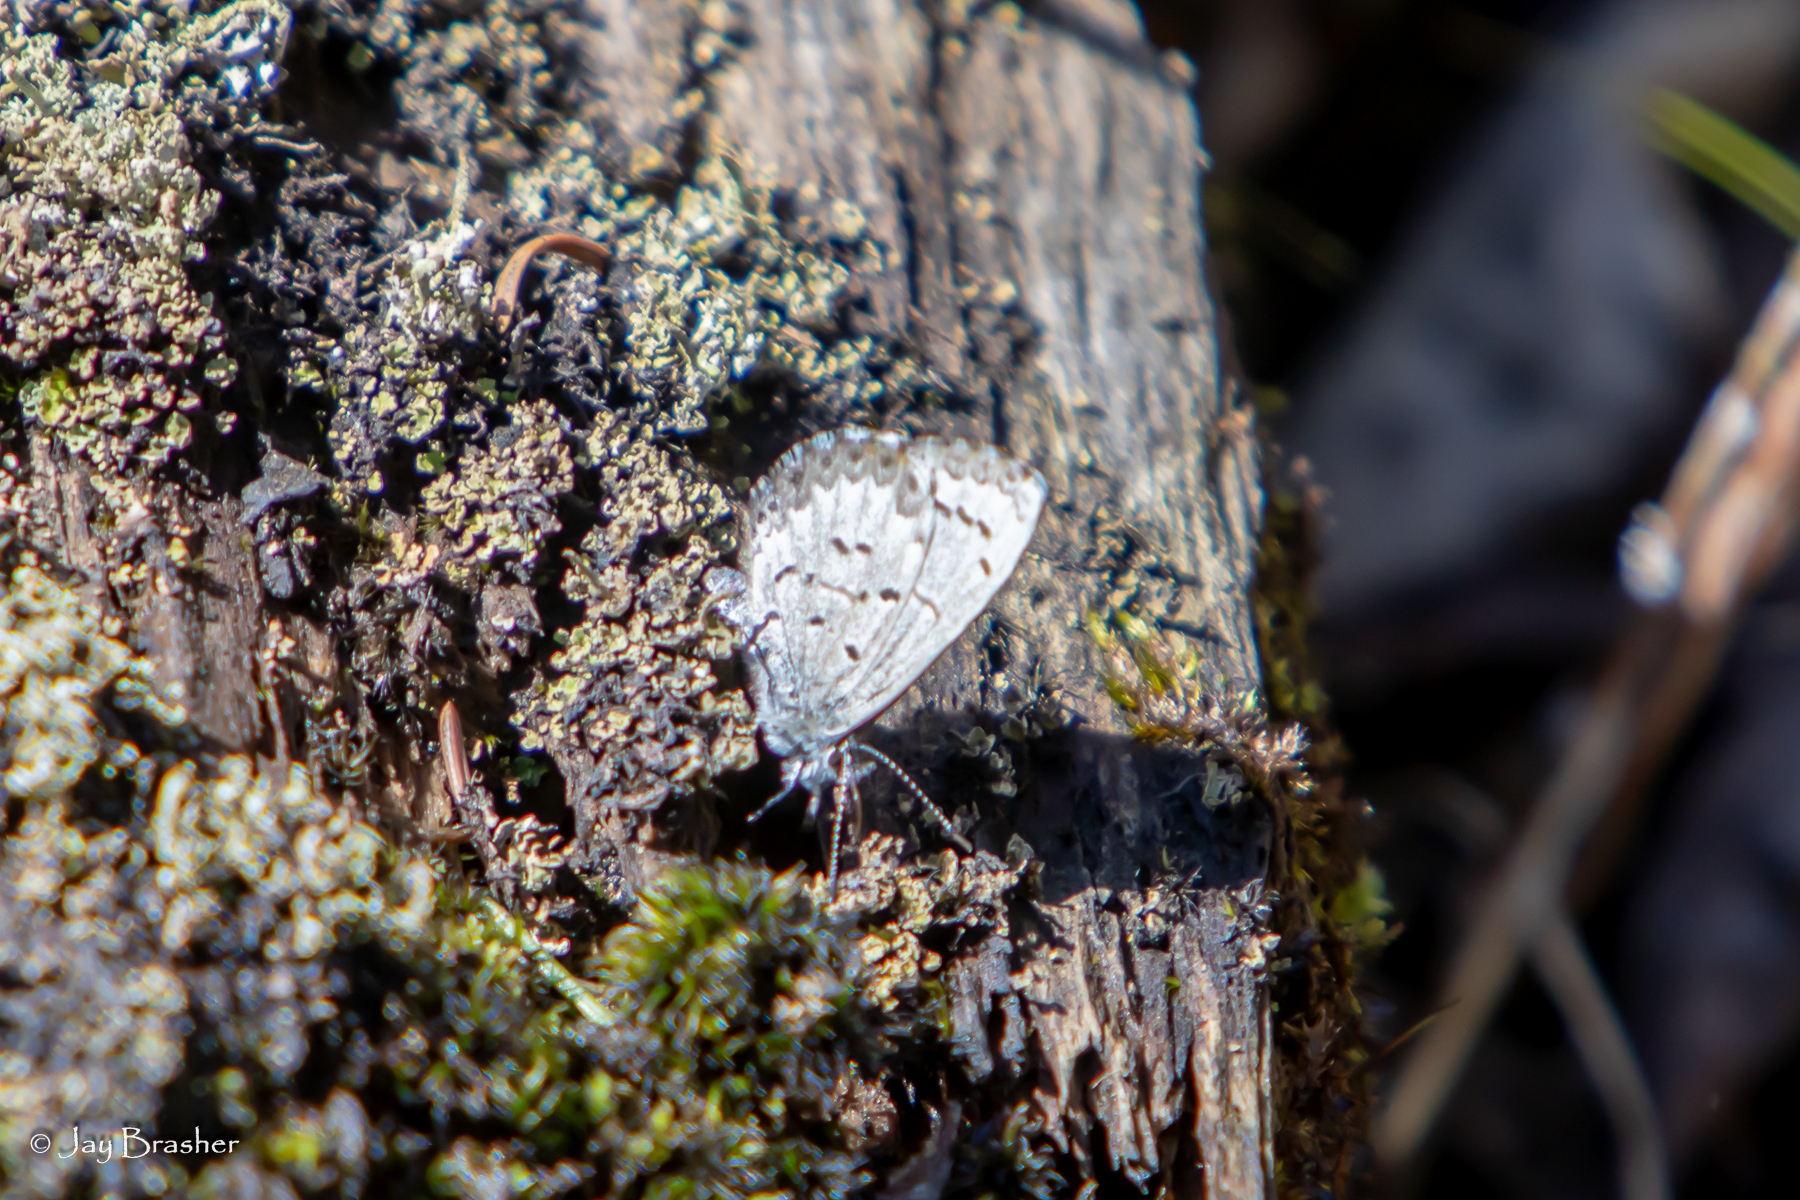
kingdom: Animalia
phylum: Arthropoda
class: Insecta
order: Lepidoptera
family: Lycaenidae
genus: Celastrina
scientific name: Celastrina lucia
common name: Lucia azure
